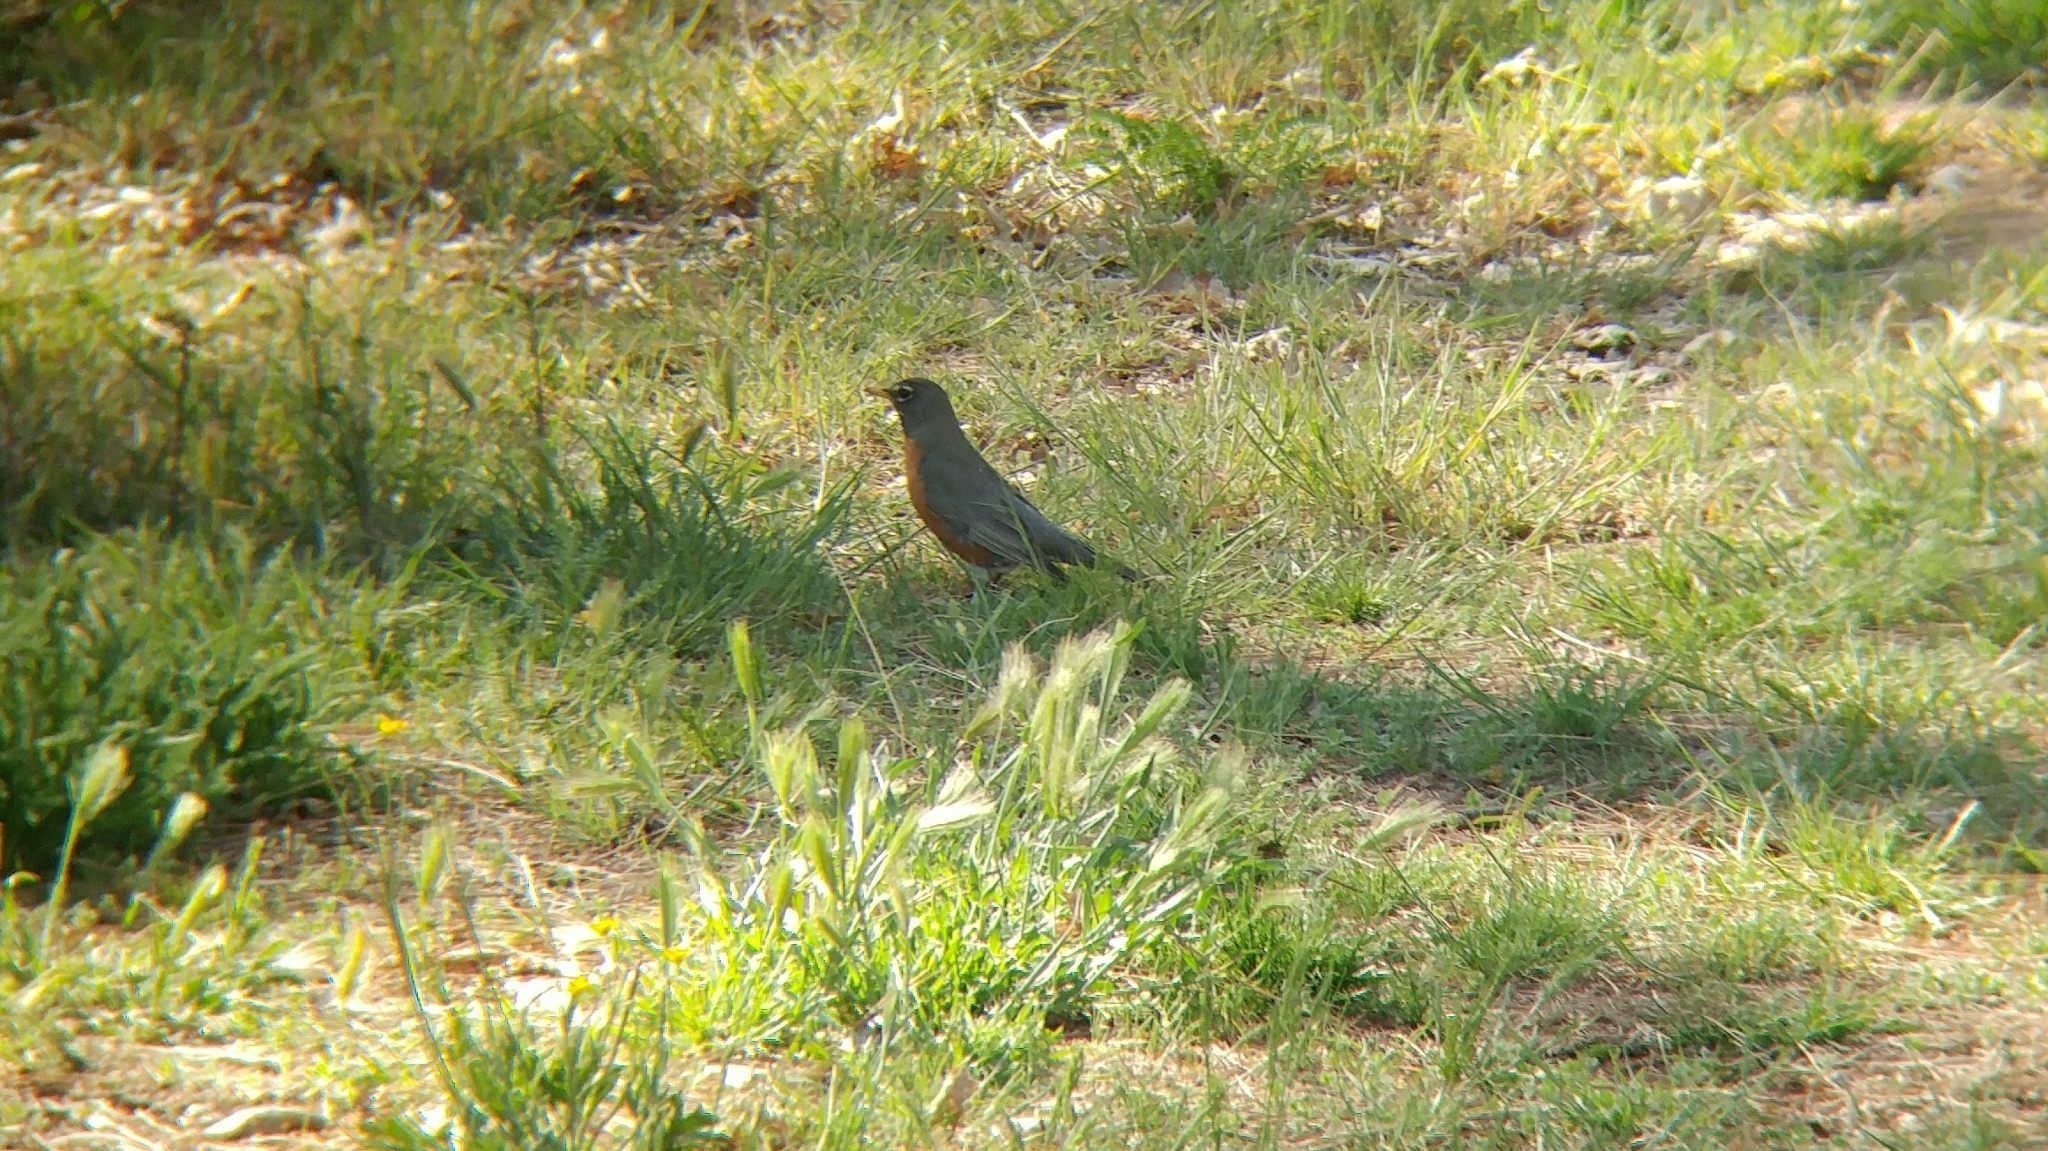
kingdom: Animalia
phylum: Chordata
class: Aves
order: Passeriformes
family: Turdidae
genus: Turdus
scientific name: Turdus migratorius
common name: American robin
